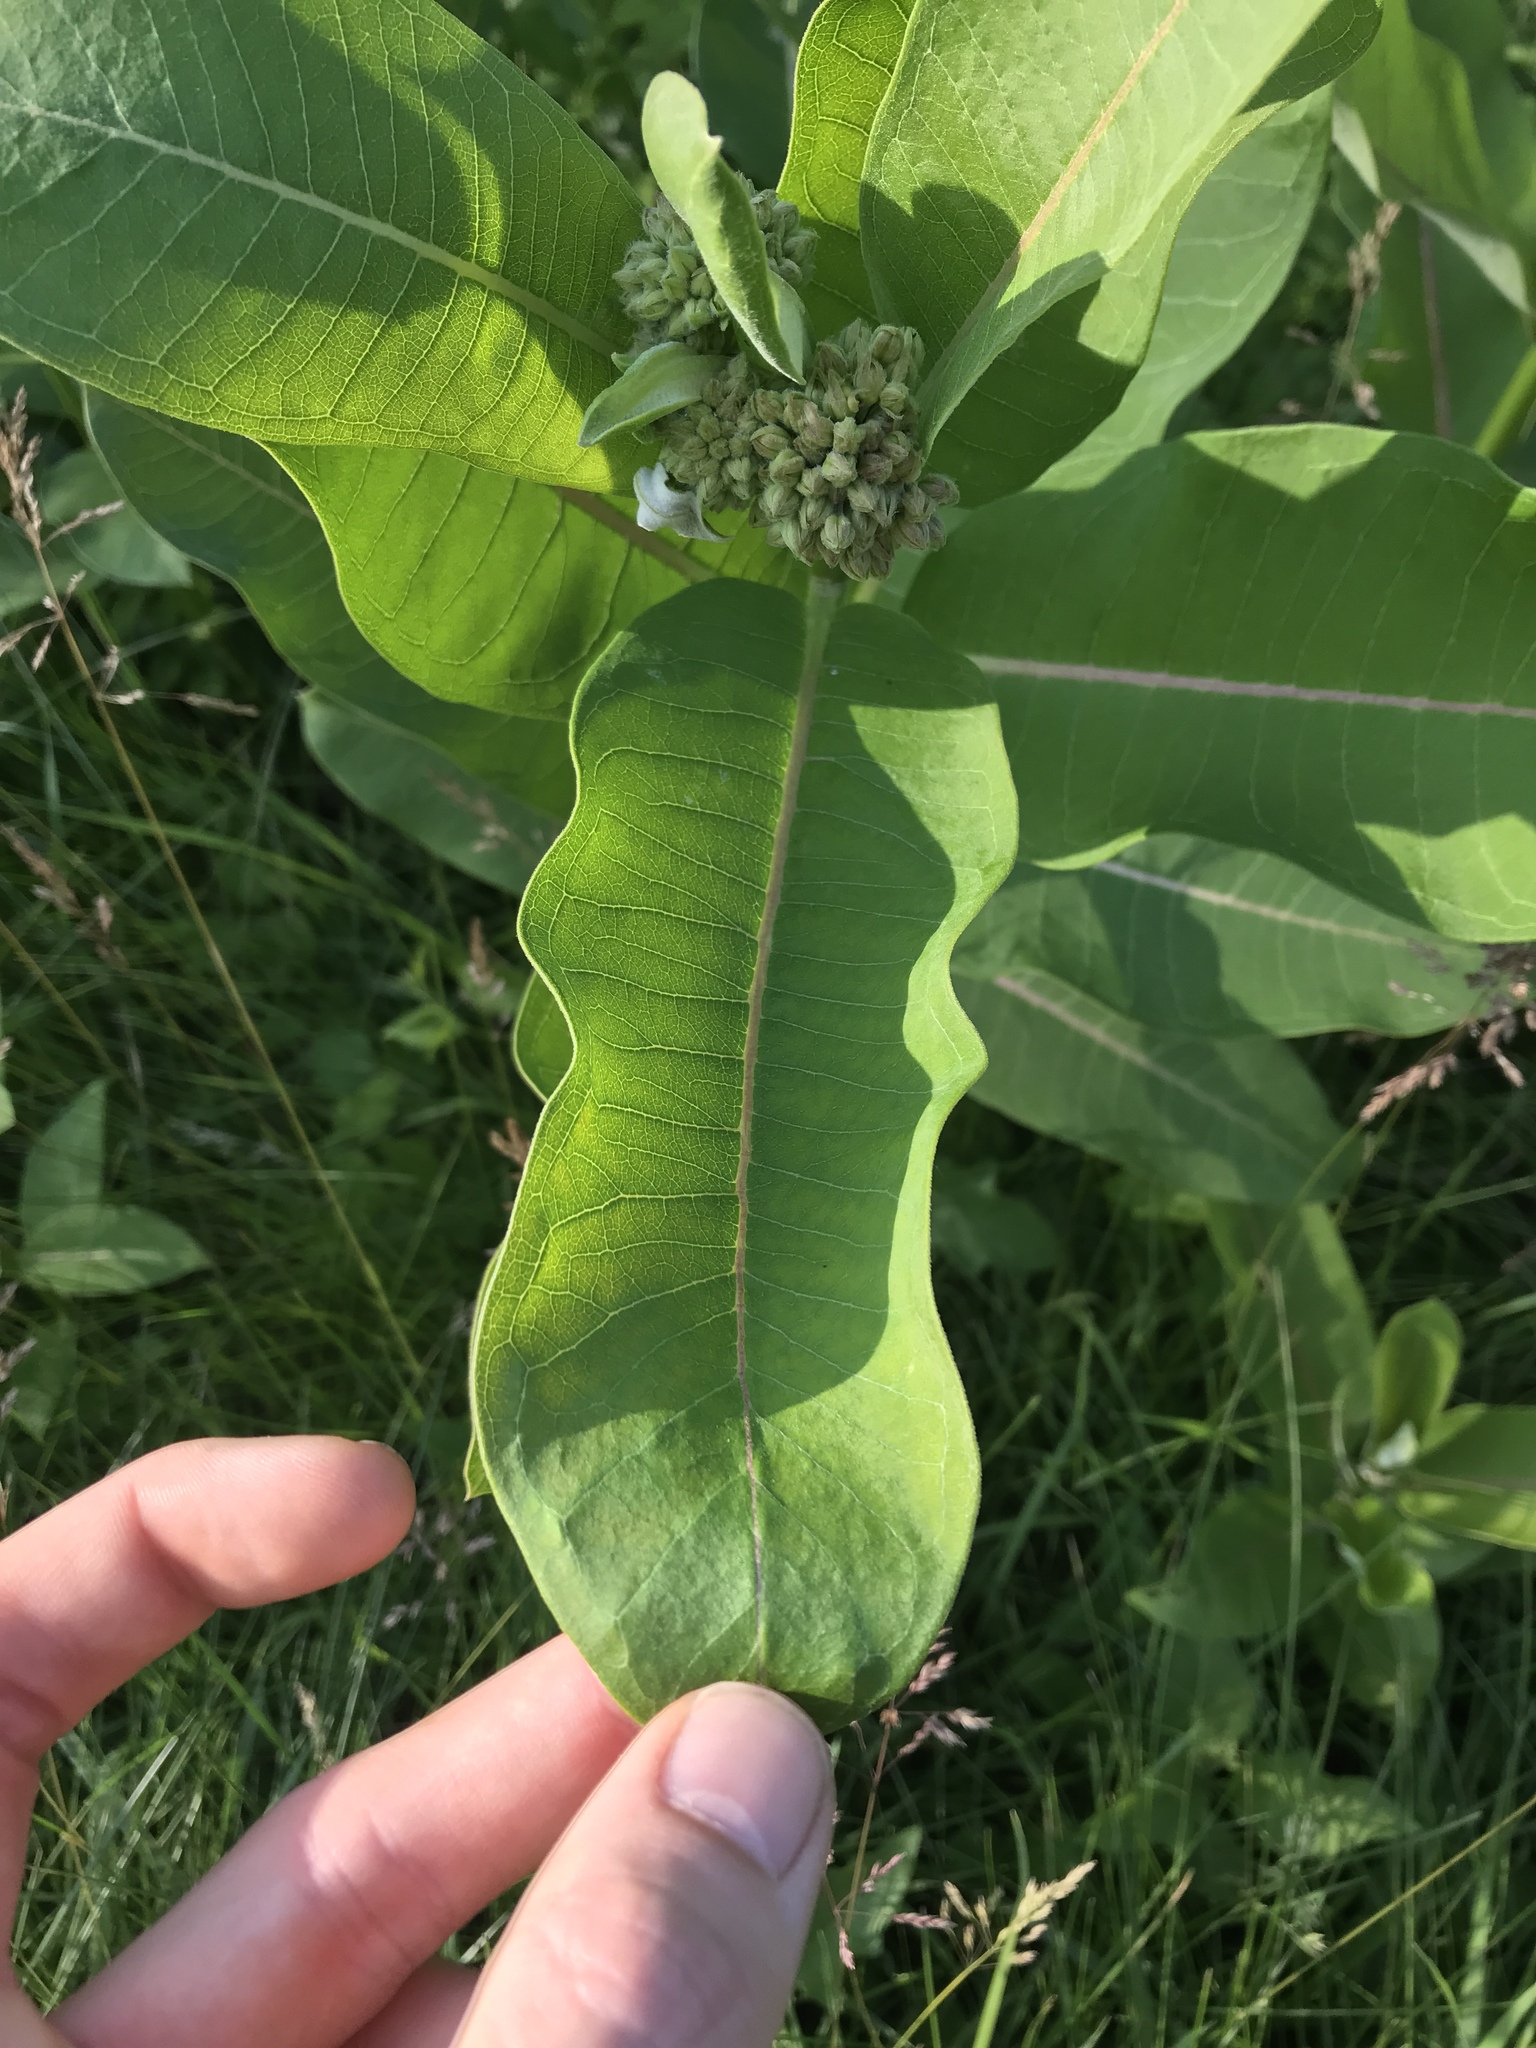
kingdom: Plantae
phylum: Tracheophyta
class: Magnoliopsida
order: Gentianales
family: Apocynaceae
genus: Asclepias
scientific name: Asclepias syriaca
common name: Common milkweed
